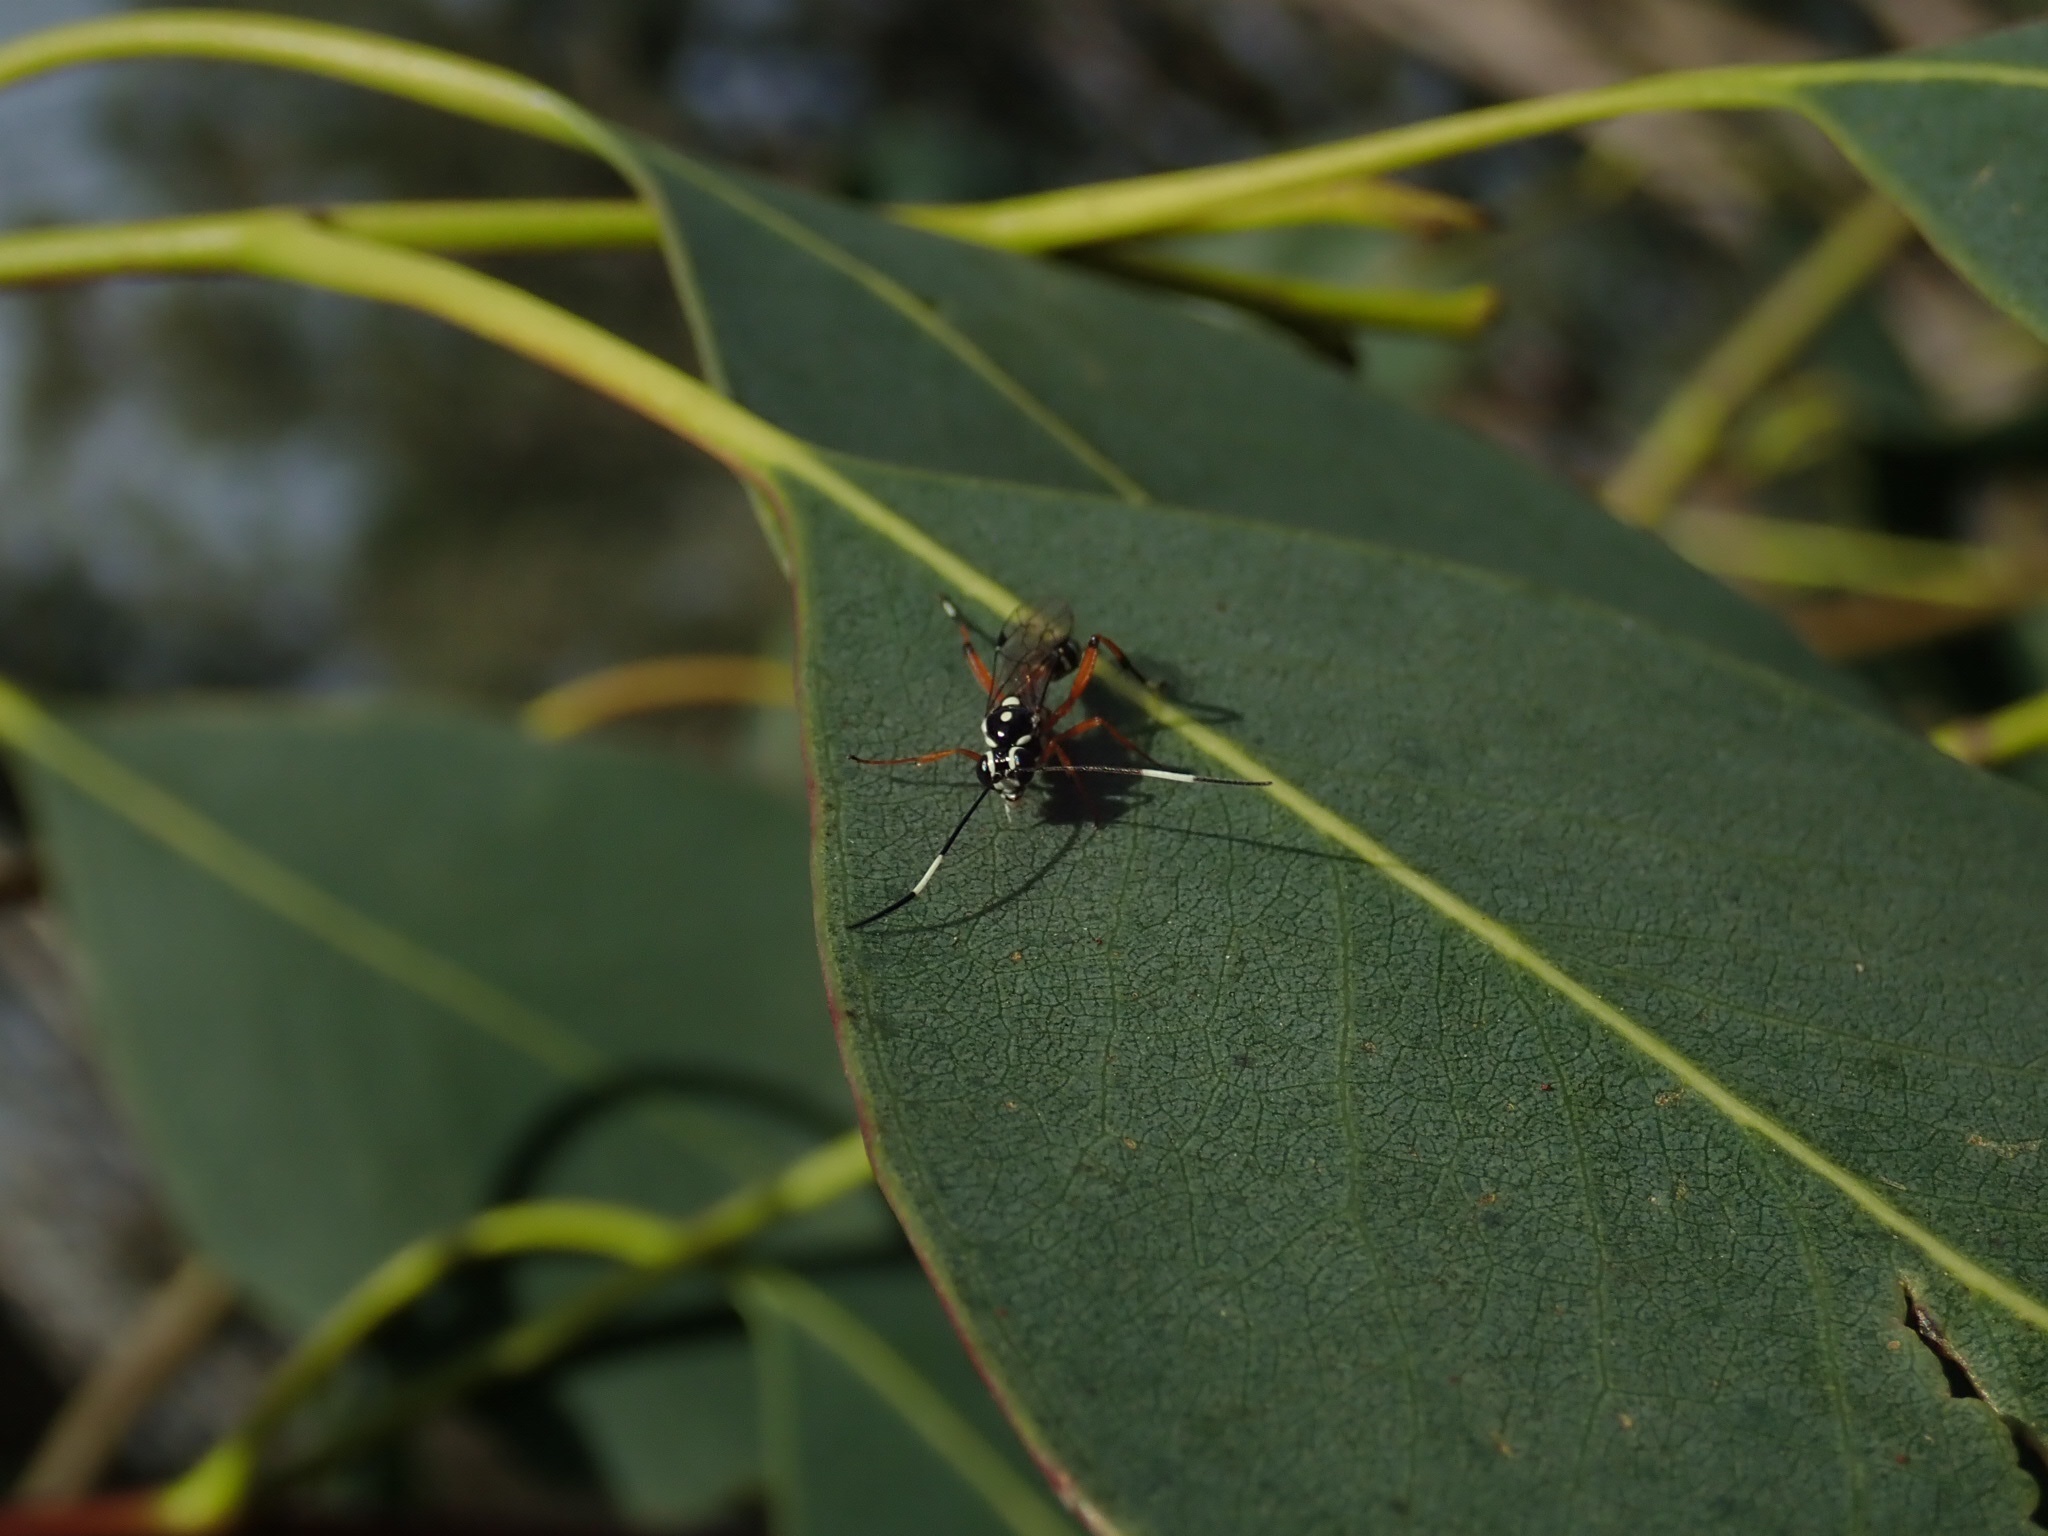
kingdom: Animalia
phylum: Arthropoda
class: Insecta
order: Hymenoptera
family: Ichneumonidae
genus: Glabridorsum
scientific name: Glabridorsum stokesii
